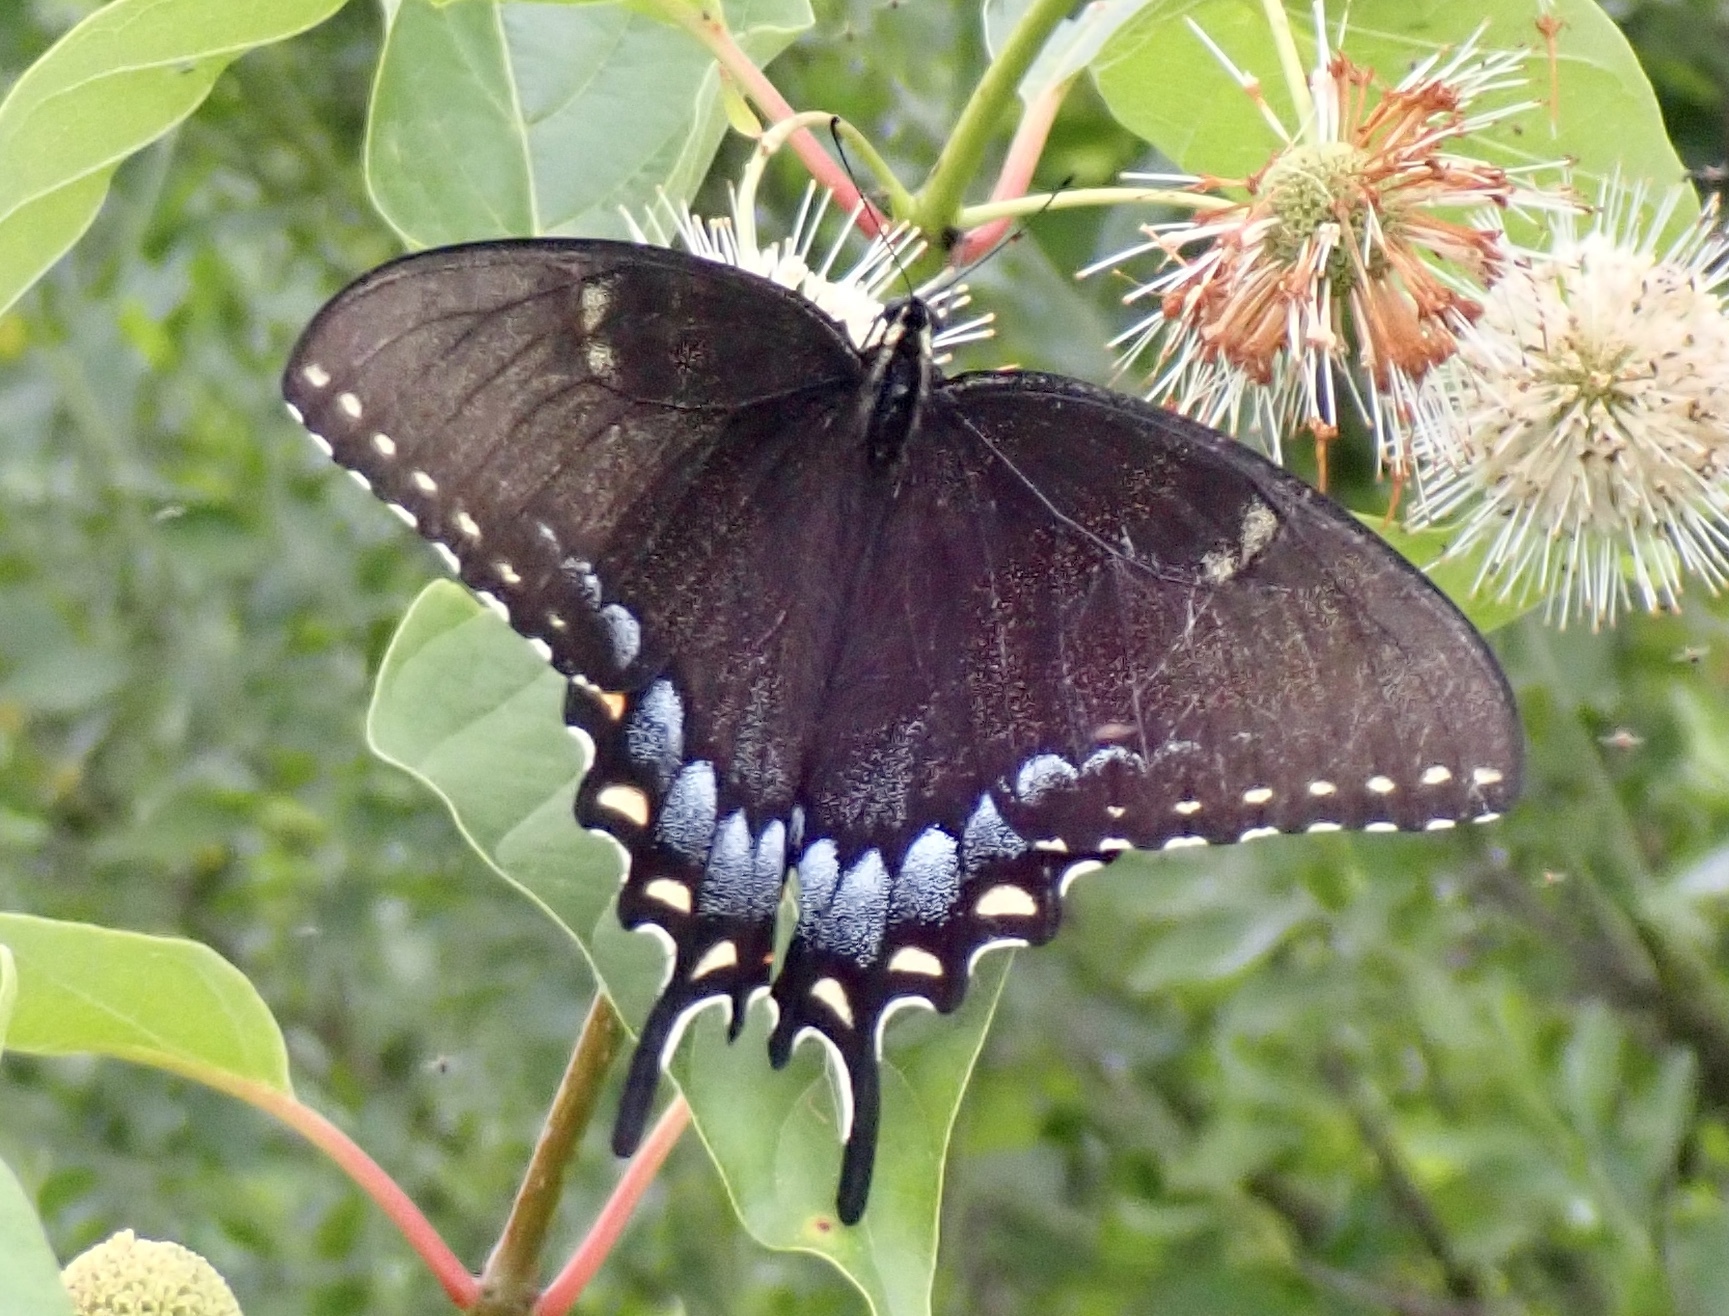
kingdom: Animalia
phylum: Arthropoda
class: Insecta
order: Lepidoptera
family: Papilionidae
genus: Papilio
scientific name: Papilio glaucus
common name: Tiger swallowtail
